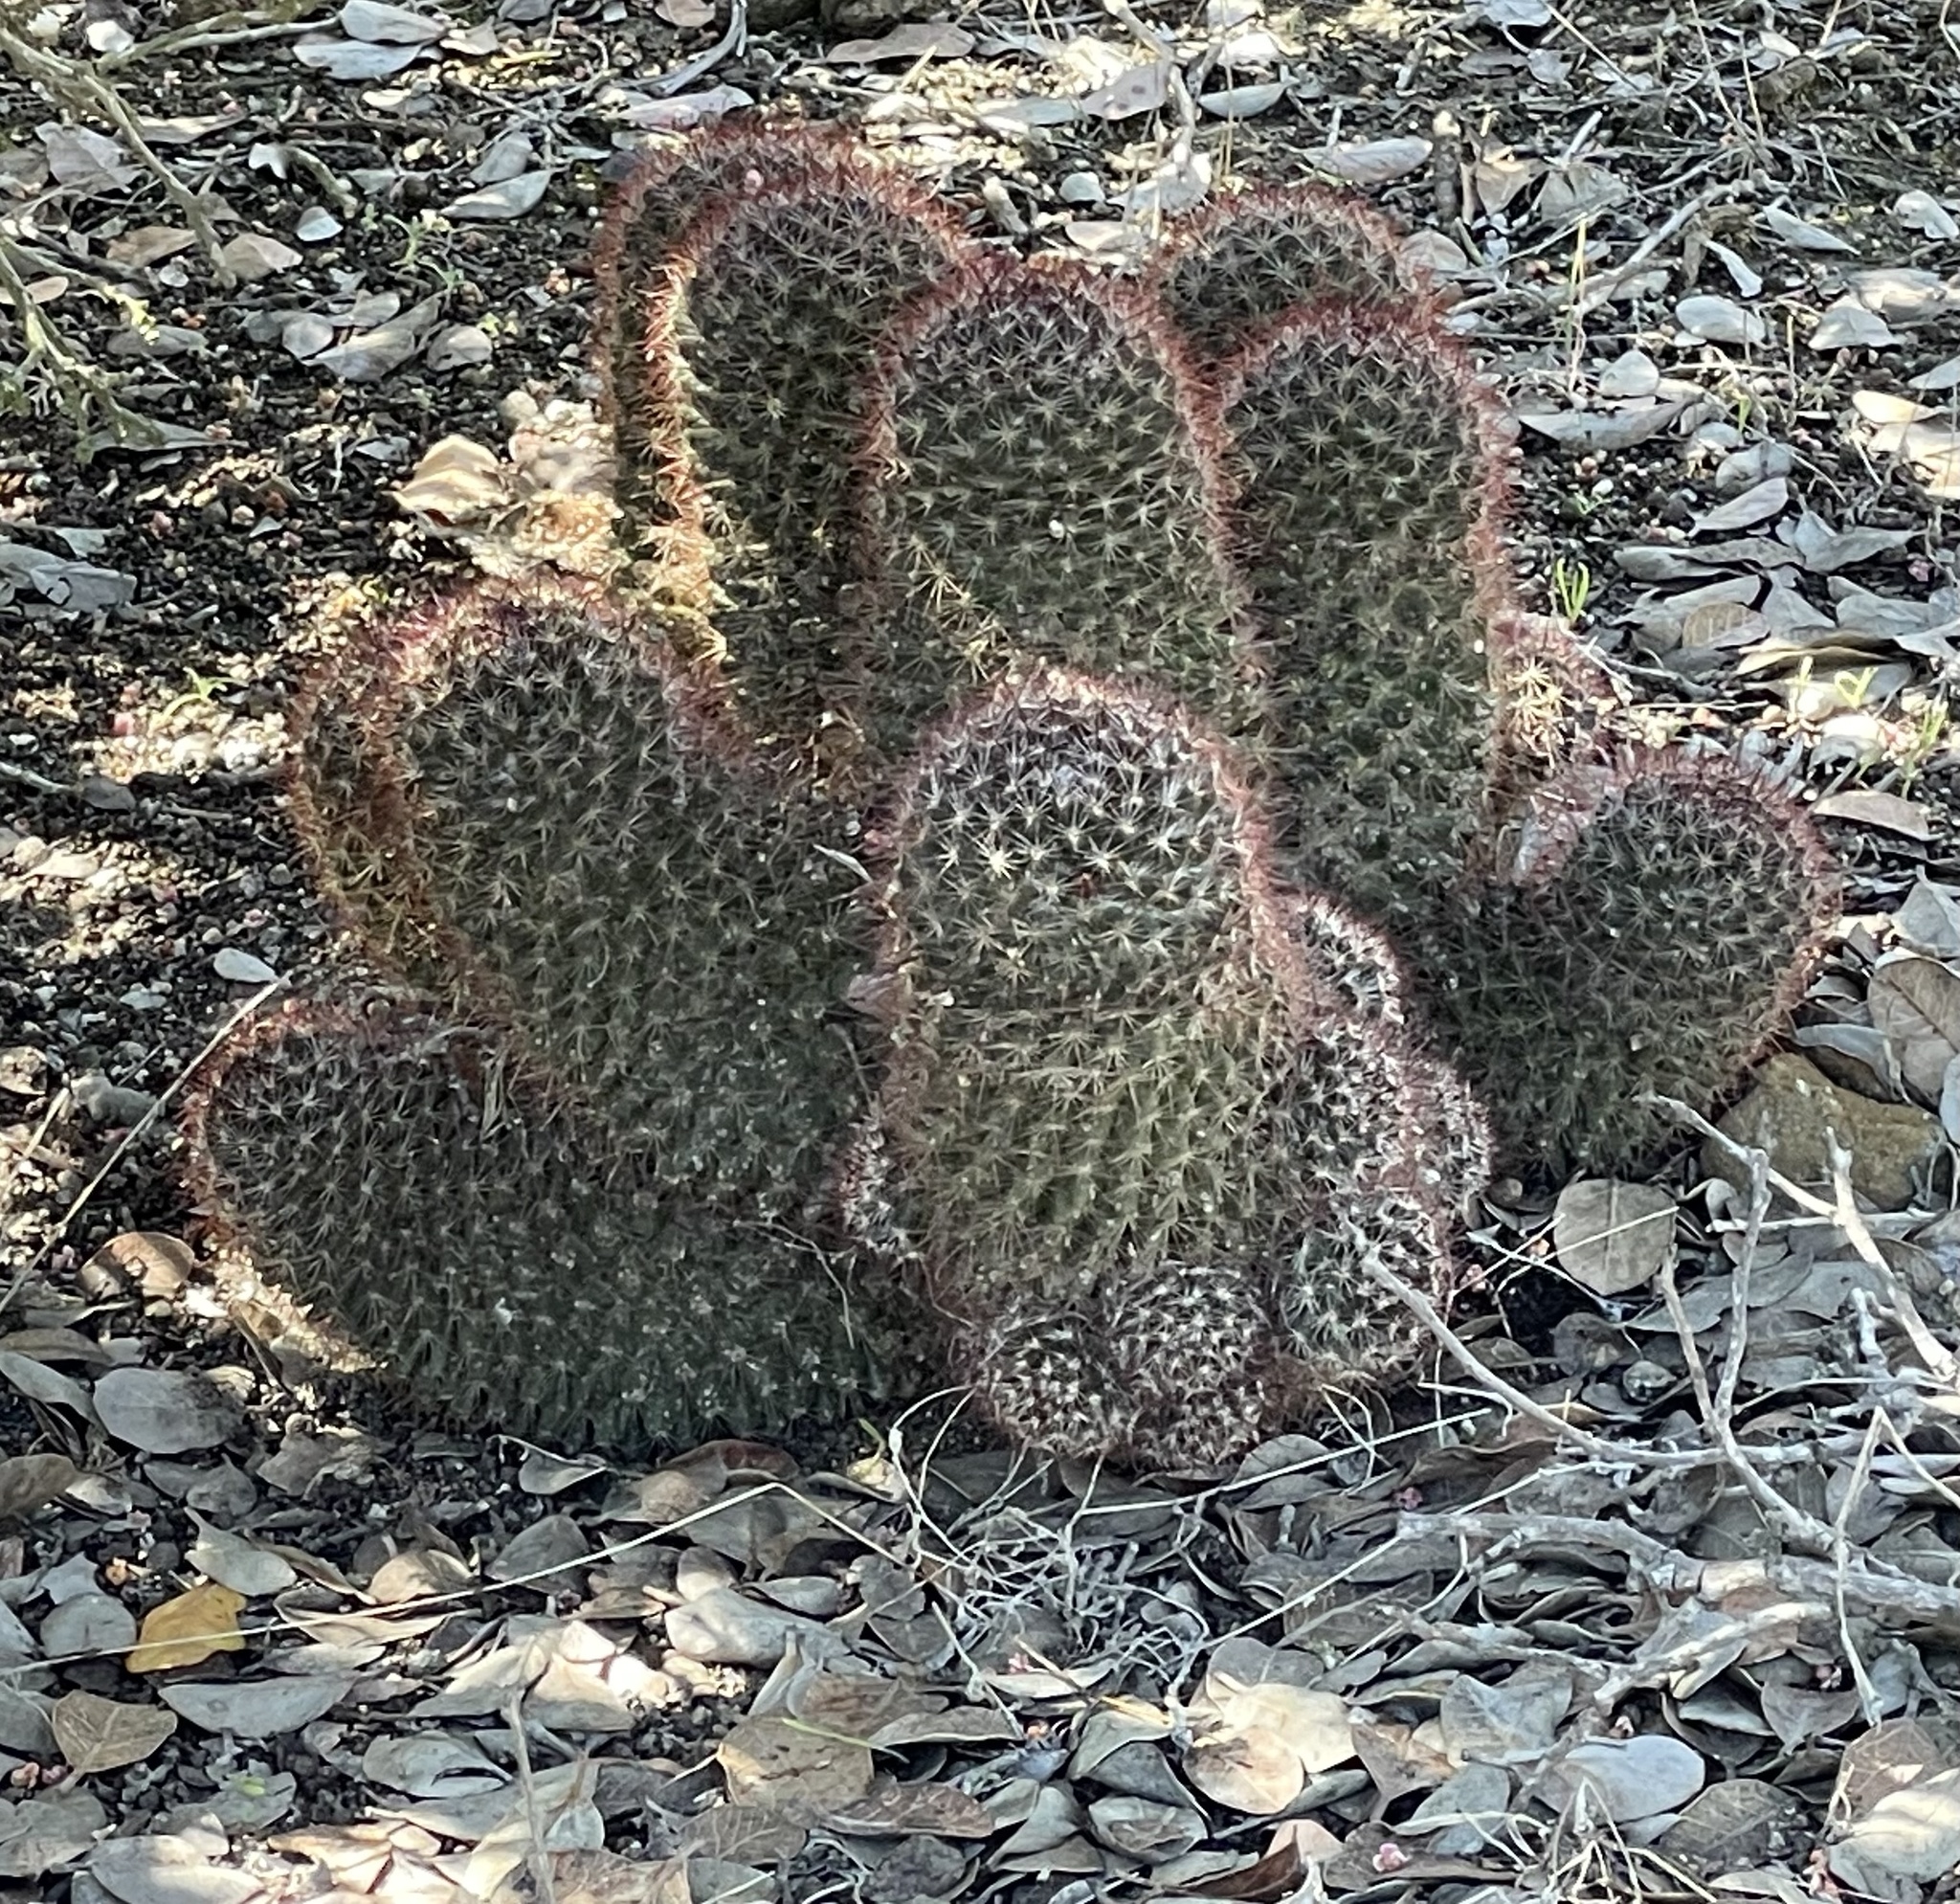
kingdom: Plantae
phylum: Tracheophyta
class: Magnoliopsida
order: Caryophyllales
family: Cactaceae
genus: Cochemiea
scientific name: Cochemiea dioica
